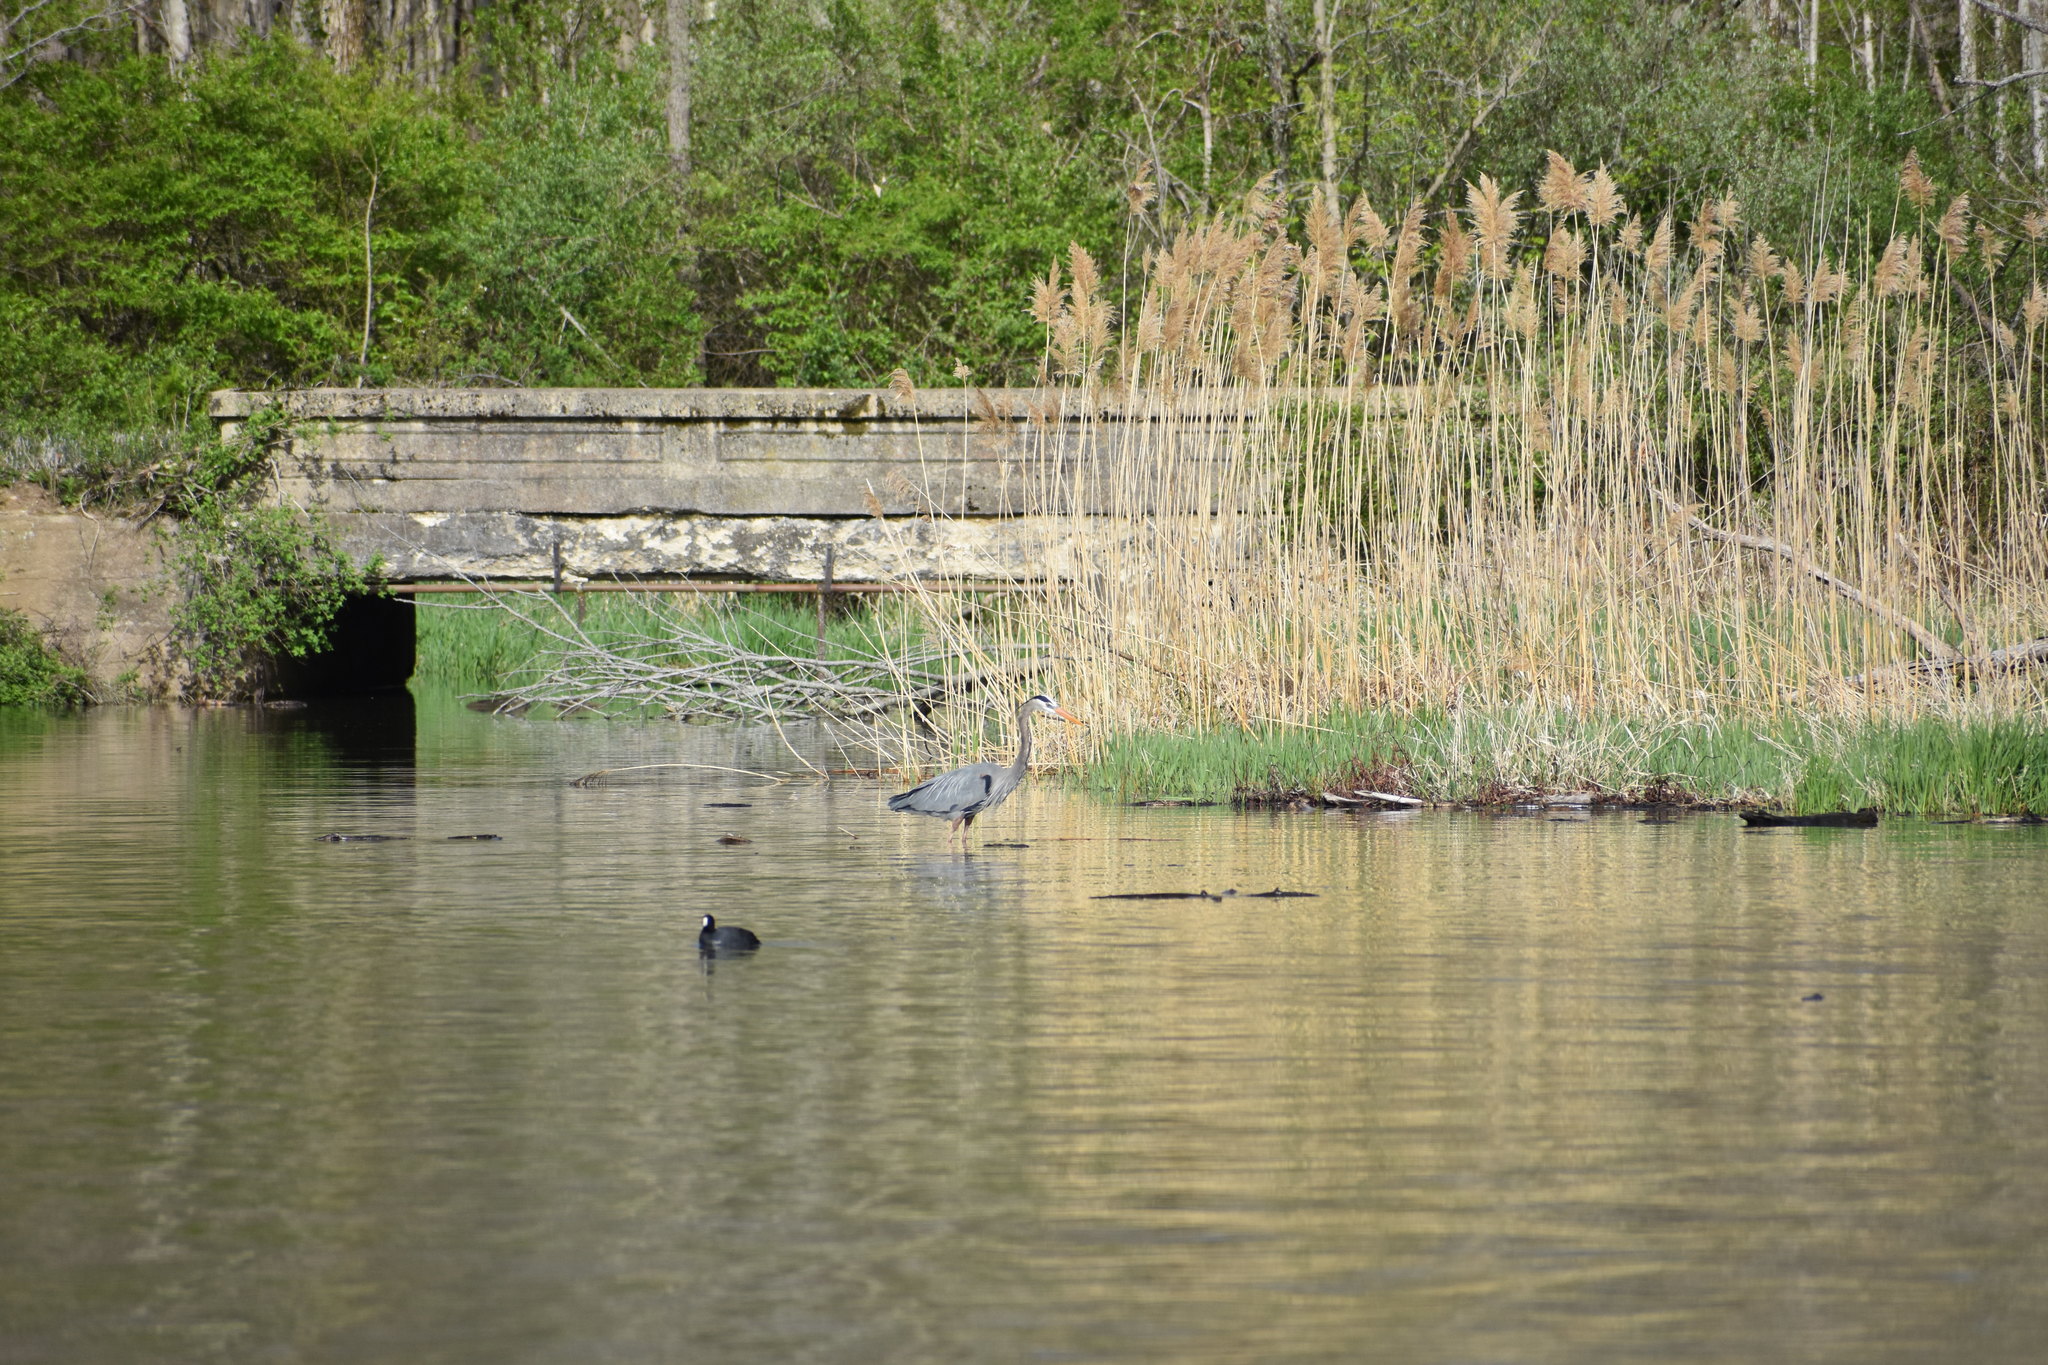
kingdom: Animalia
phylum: Chordata
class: Aves
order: Pelecaniformes
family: Ardeidae
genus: Ardea
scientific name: Ardea herodias
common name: Great blue heron
